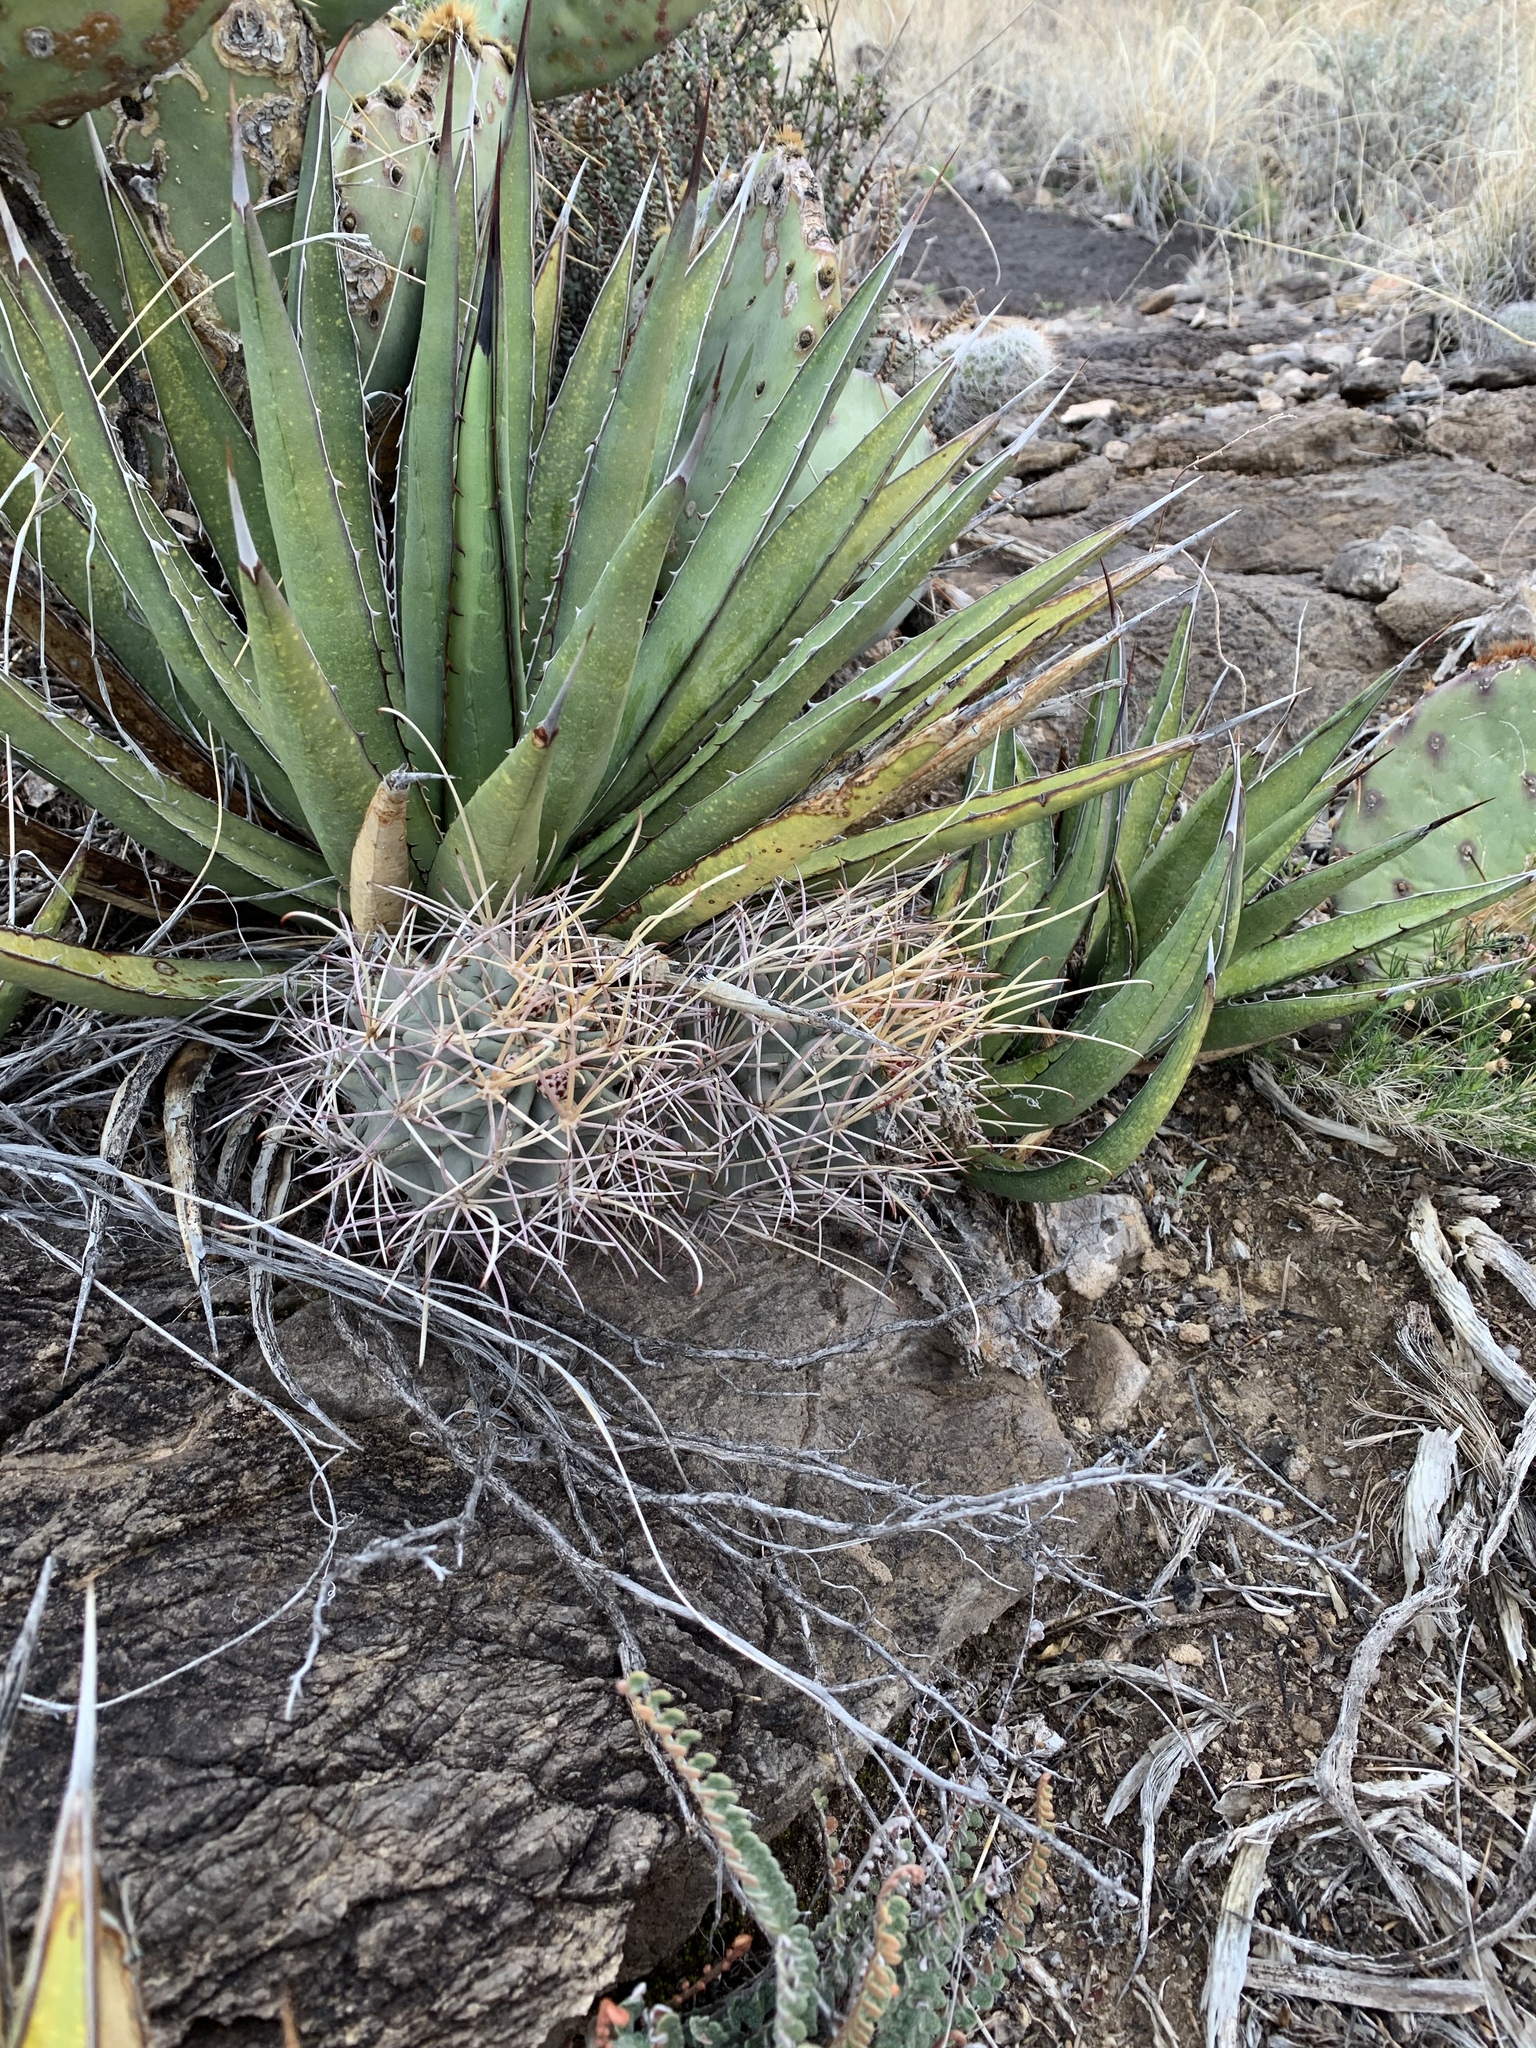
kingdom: Plantae
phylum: Tracheophyta
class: Magnoliopsida
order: Caryophyllales
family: Cactaceae
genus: Ferocactus
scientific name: Ferocactus uncinatus
